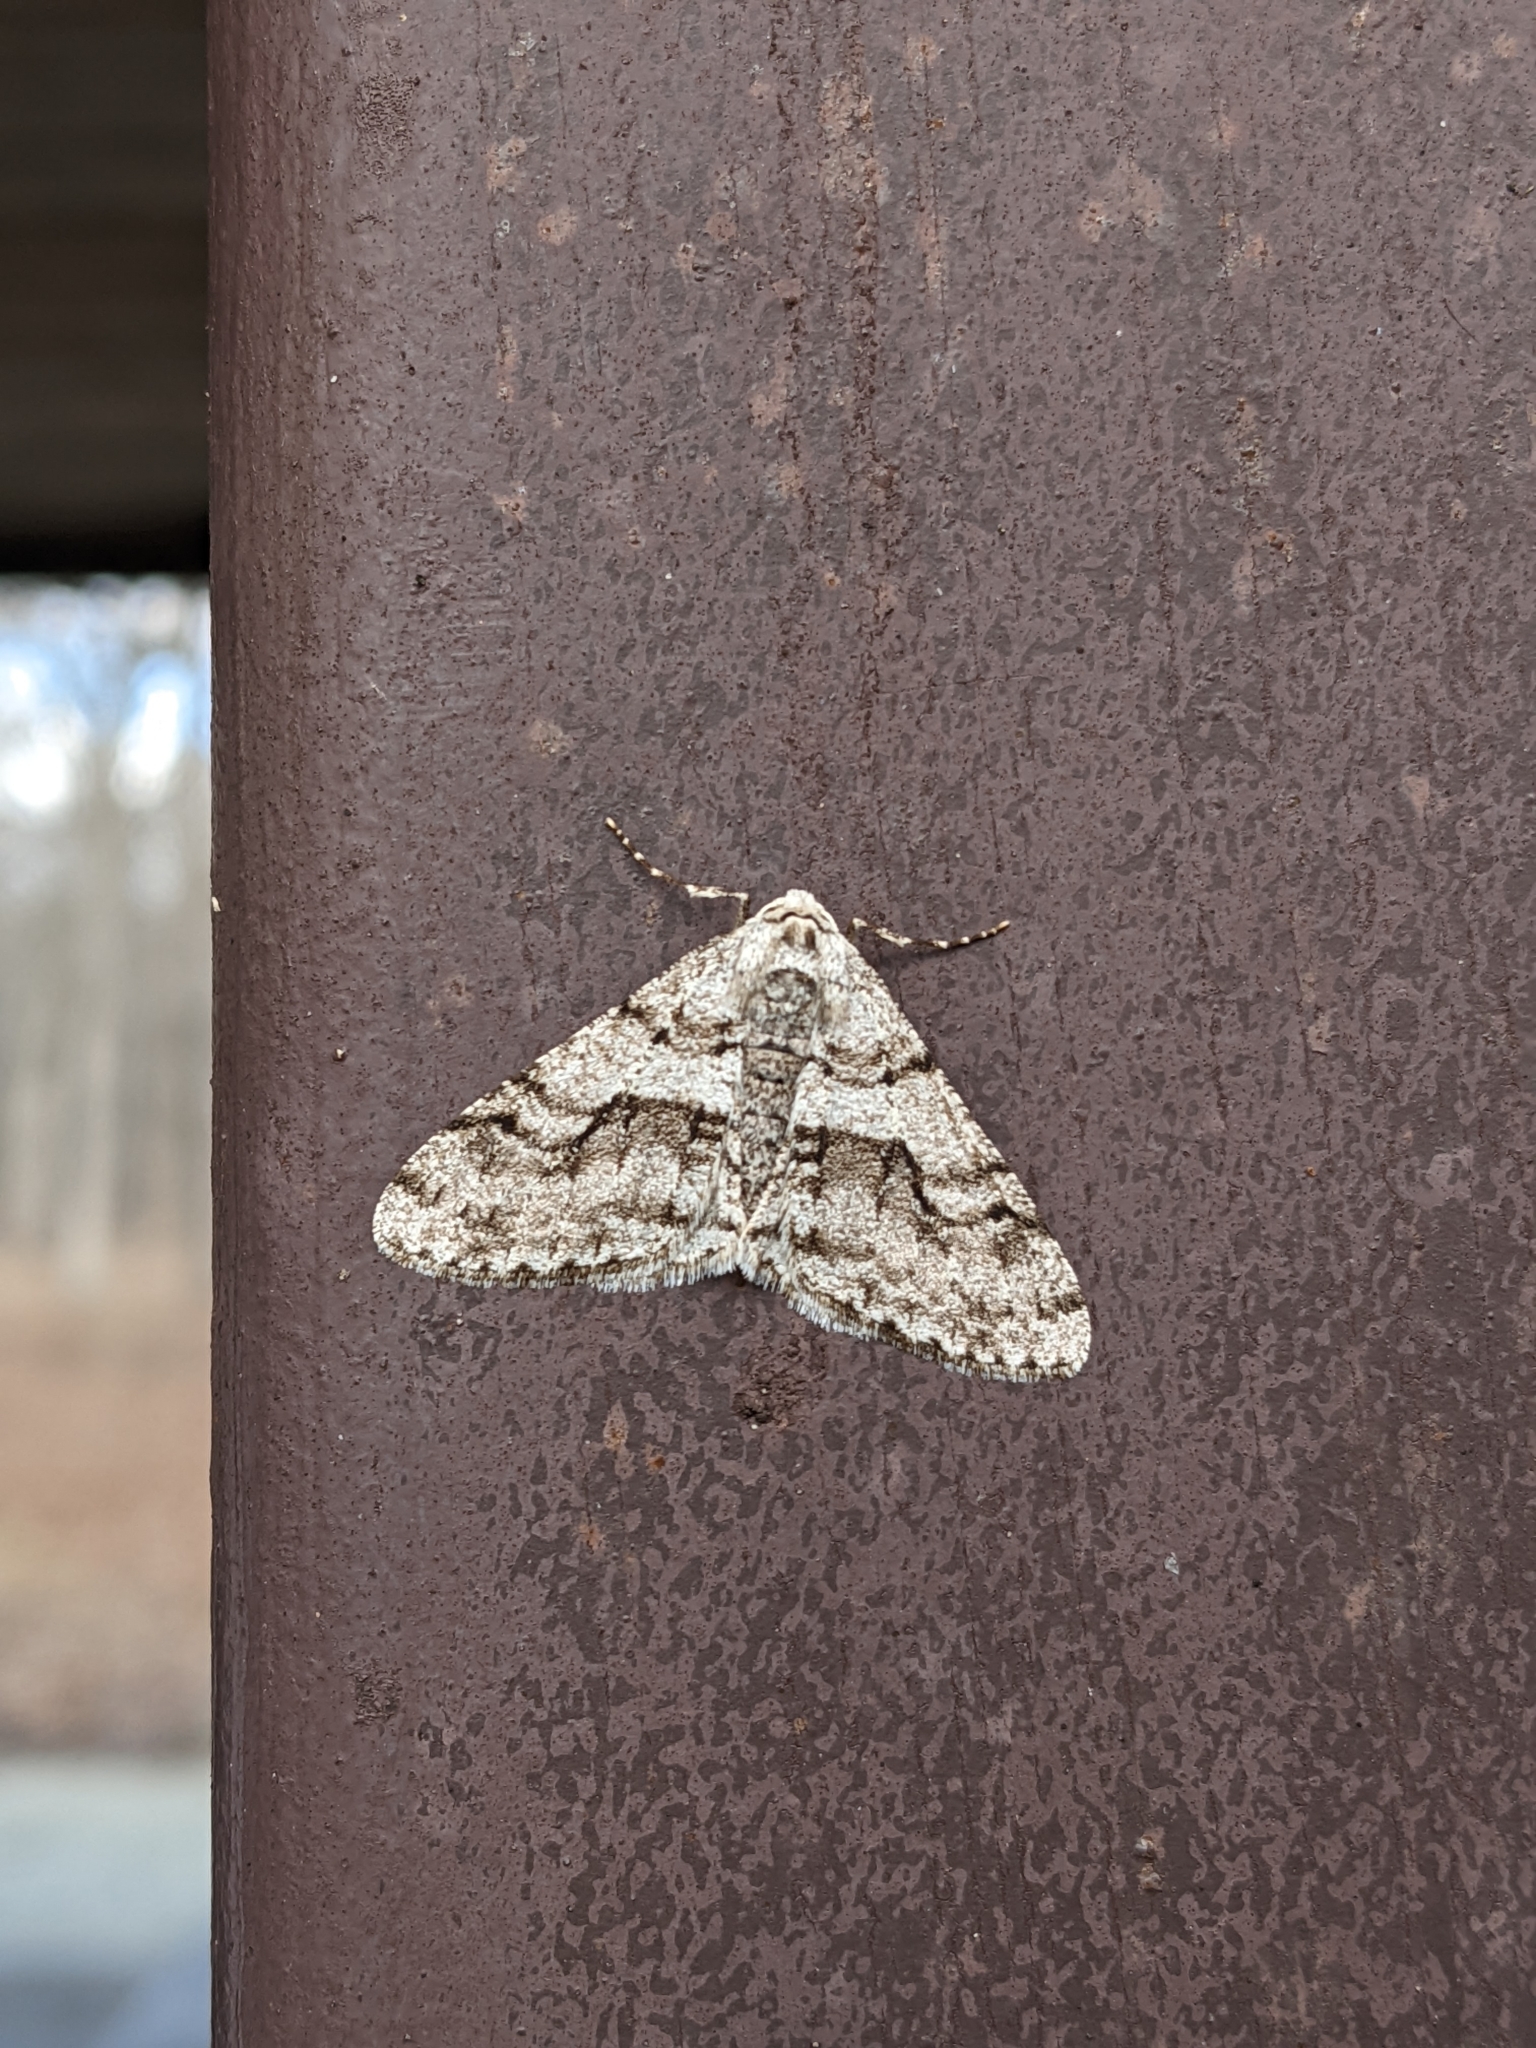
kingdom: Animalia
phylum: Arthropoda
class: Insecta
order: Lepidoptera
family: Geometridae
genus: Phigalia
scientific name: Phigalia titea
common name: Spiny looper
